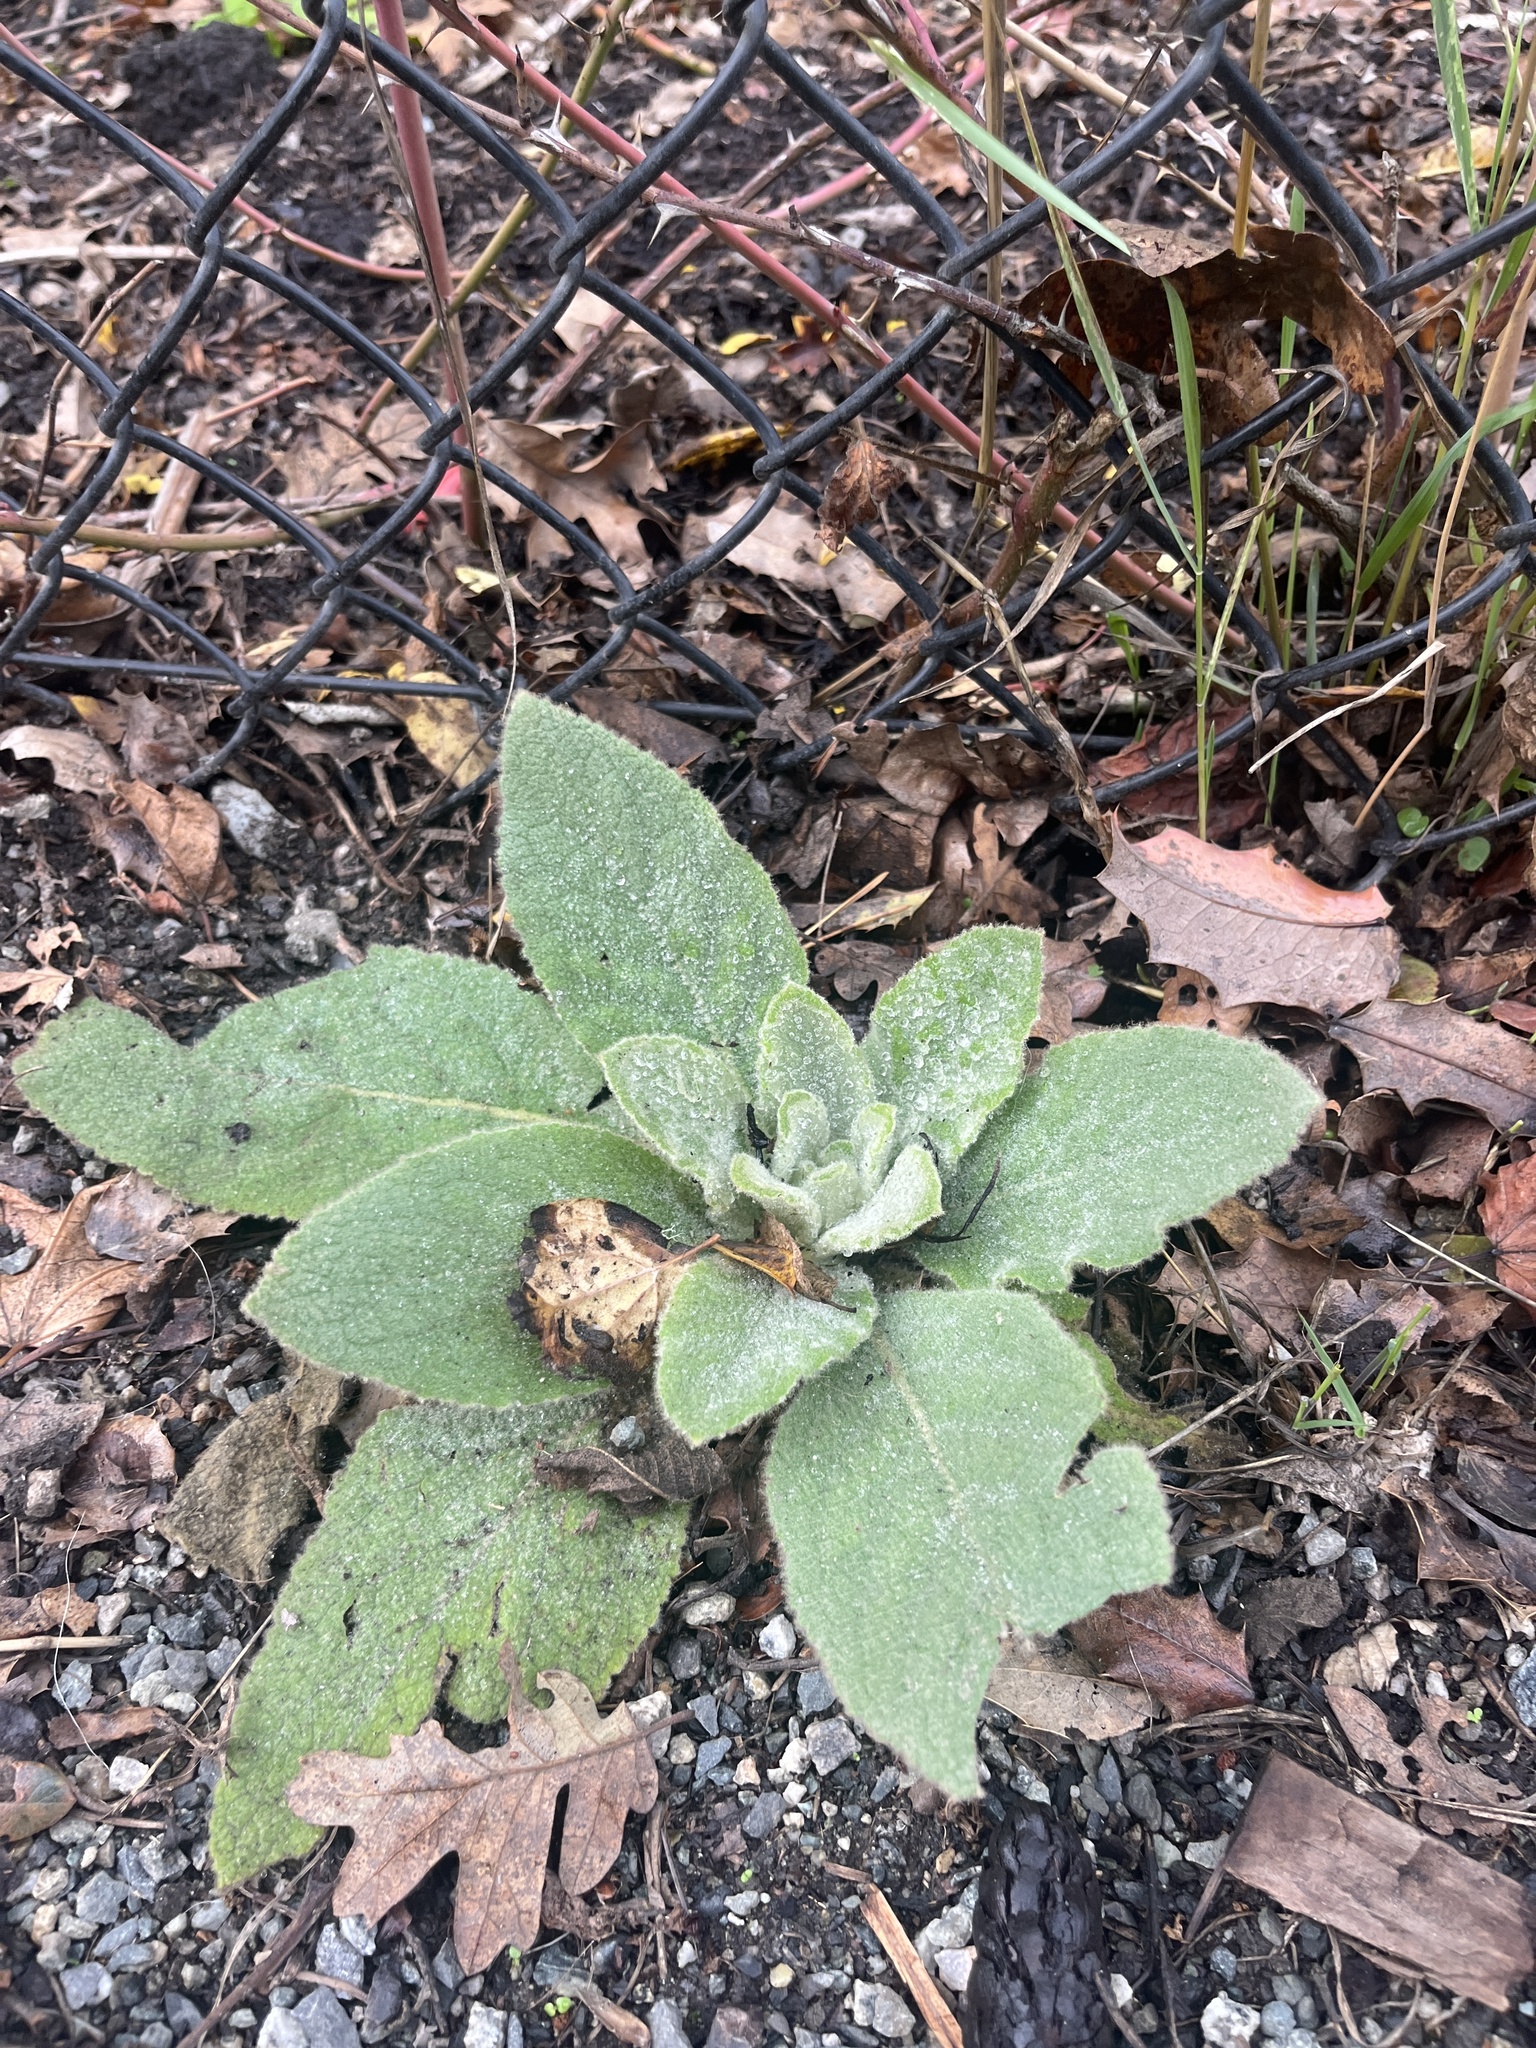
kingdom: Plantae
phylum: Tracheophyta
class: Magnoliopsida
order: Lamiales
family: Scrophulariaceae
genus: Verbascum
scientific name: Verbascum thapsus
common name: Common mullein
